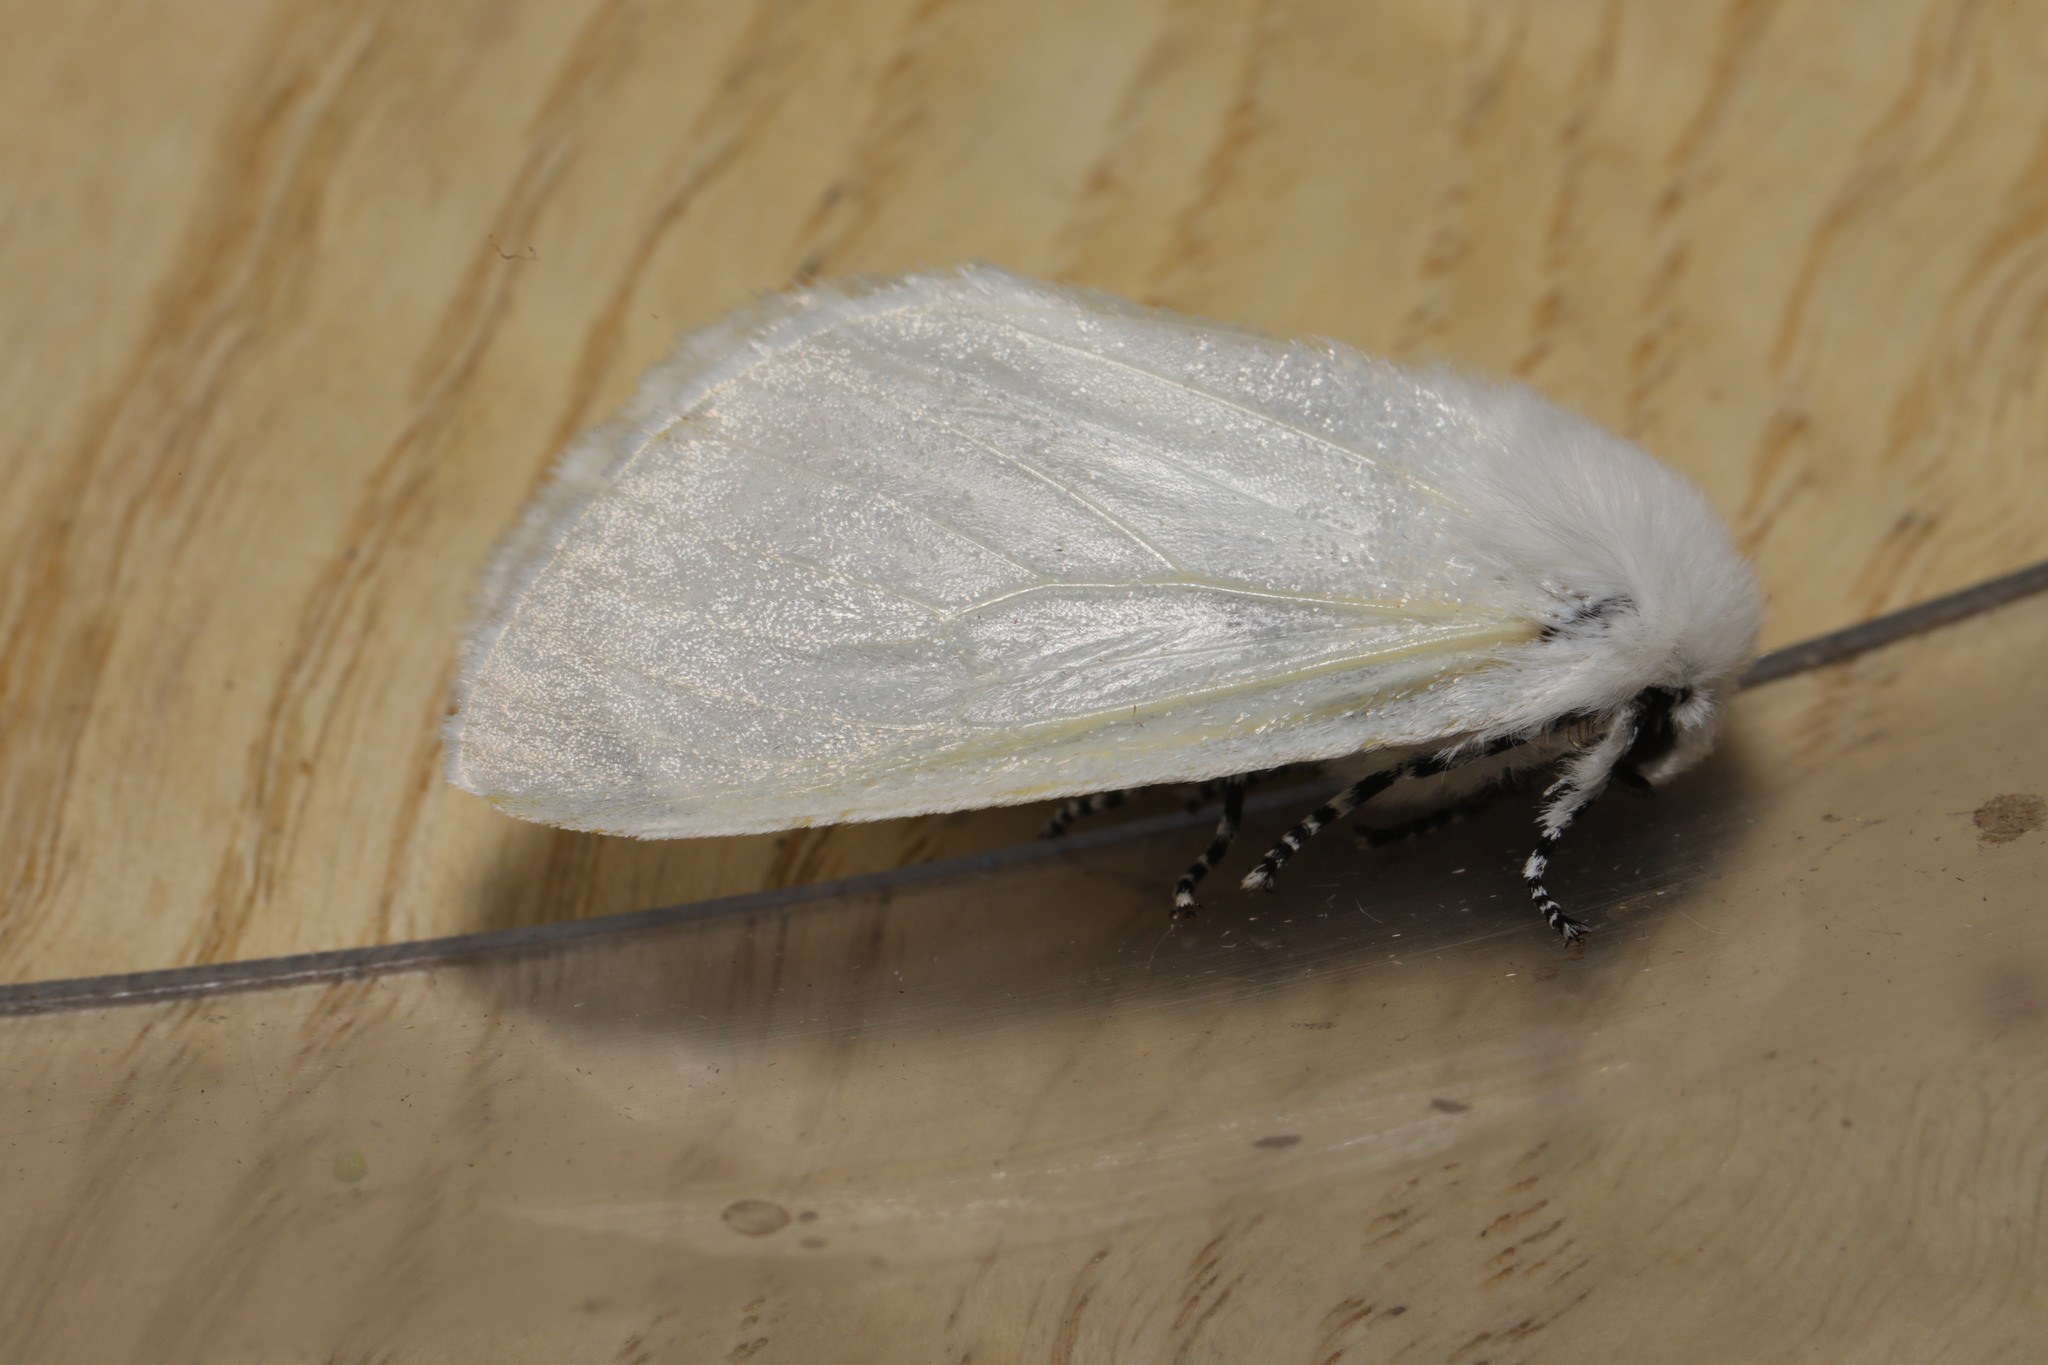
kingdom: Animalia
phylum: Arthropoda
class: Insecta
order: Lepidoptera
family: Erebidae
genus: Leucoma
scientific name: Leucoma salicis
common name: White satin moth
